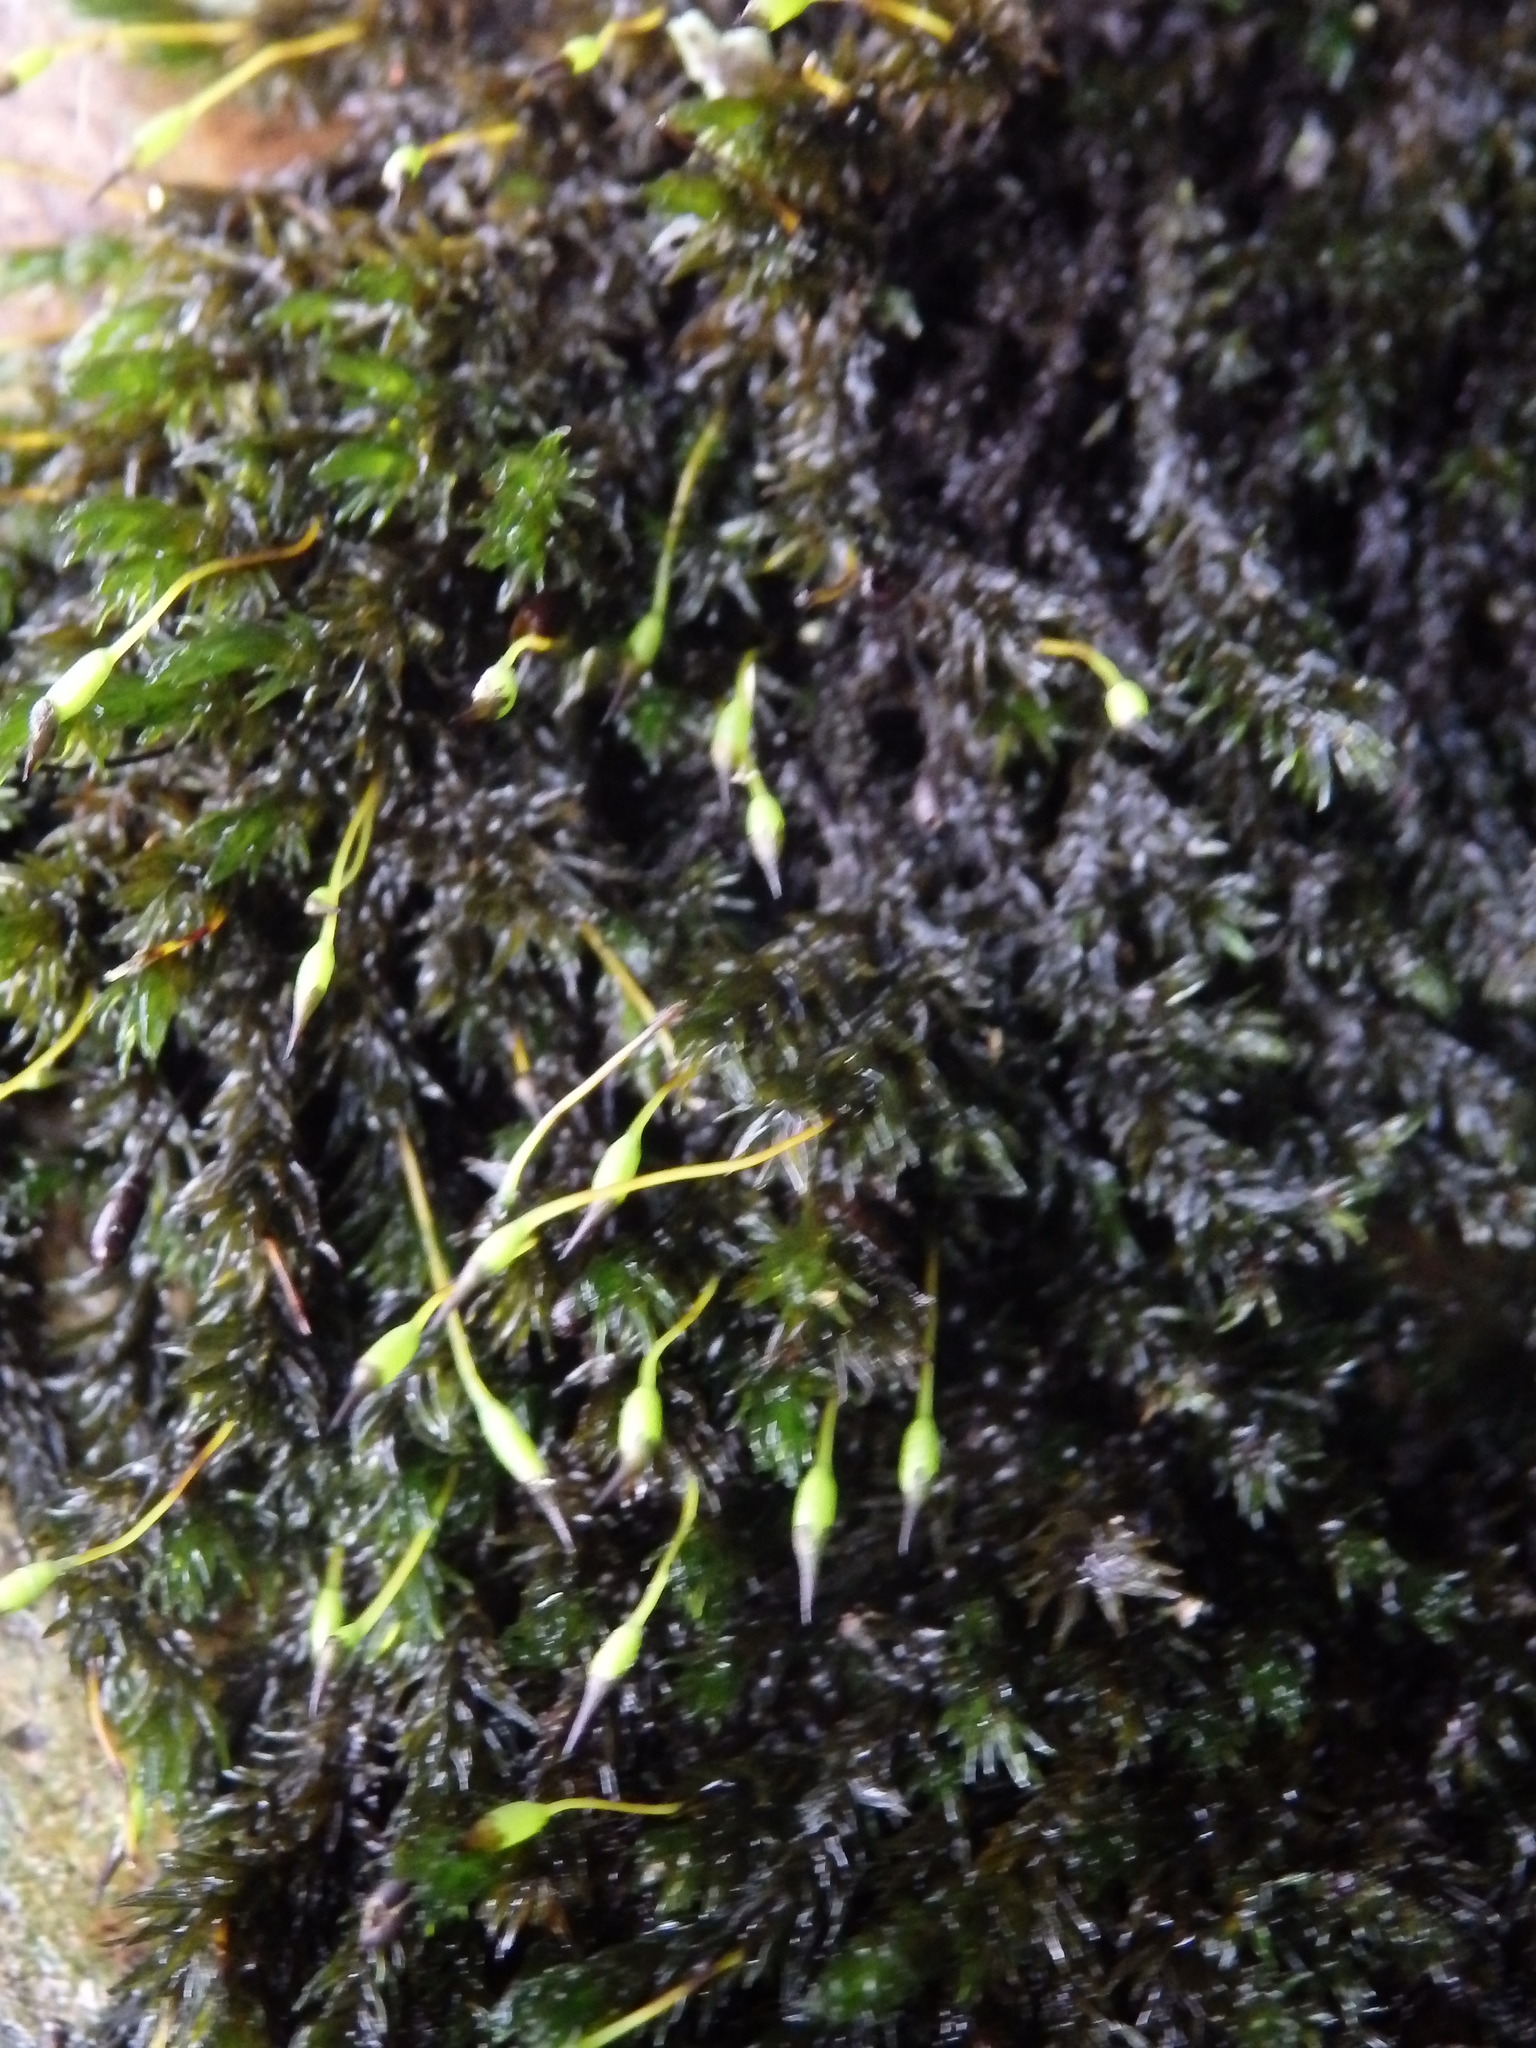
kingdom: Plantae
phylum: Bryophyta
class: Bryopsida
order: Grimmiales
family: Grimmiaceae
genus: Codriophorus
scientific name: Codriophorus acicularis
